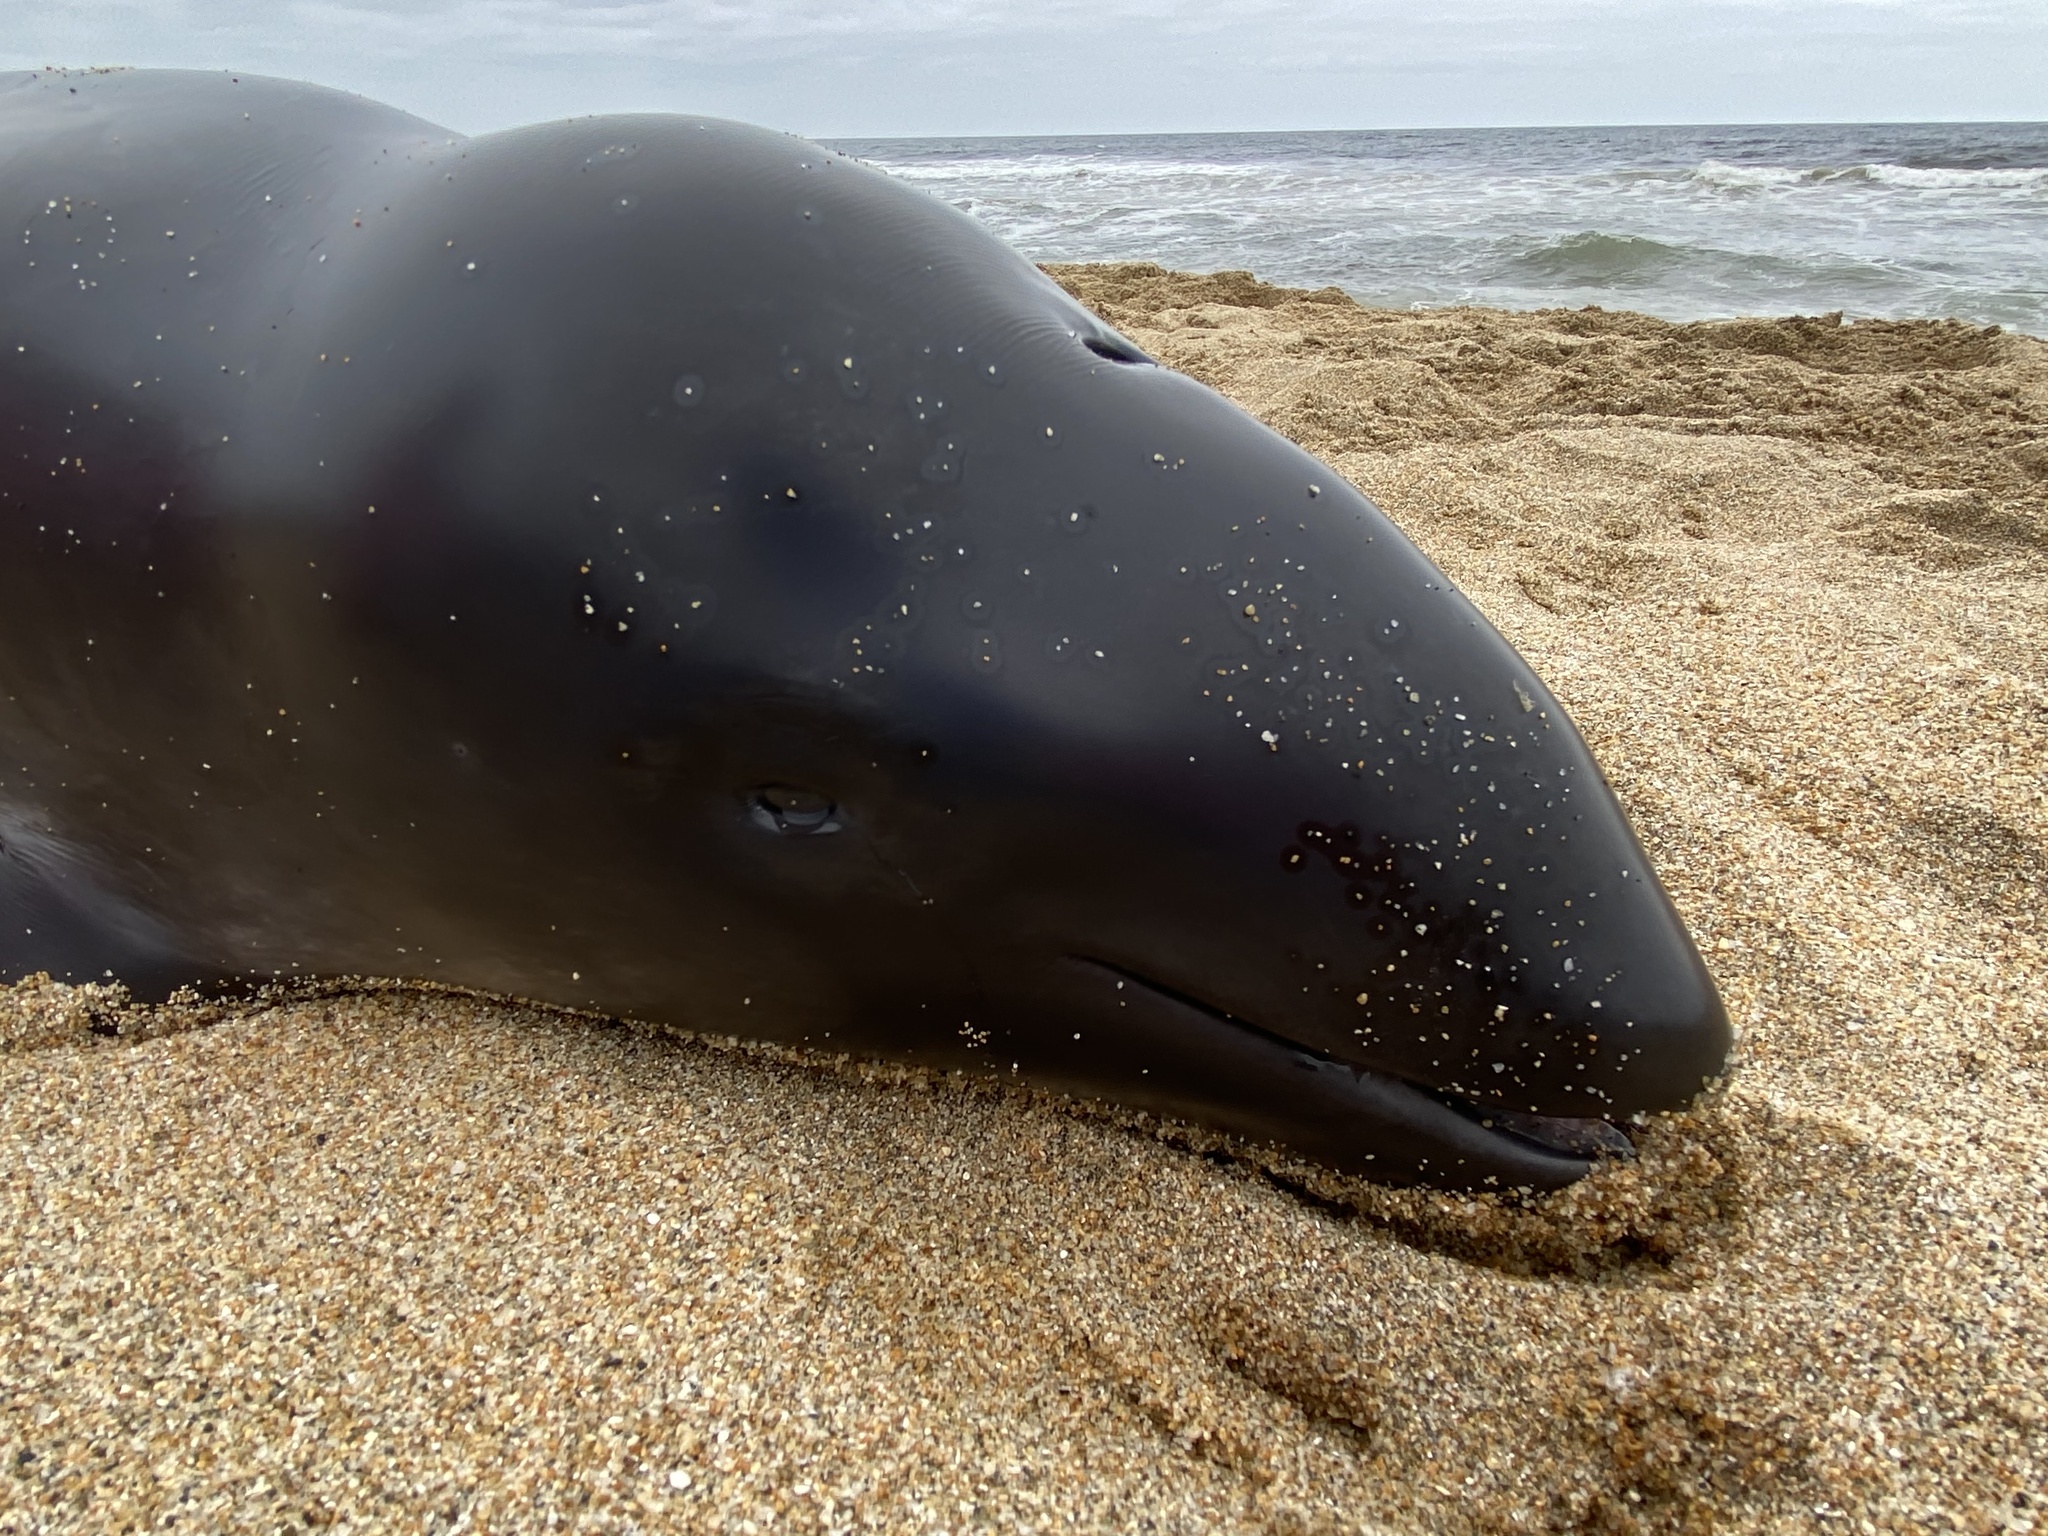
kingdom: Animalia
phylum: Chordata
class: Mammalia
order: Cetacea
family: Phocoenidae
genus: Phocoena
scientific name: Phocoena phocoena
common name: Harbor porpoise
